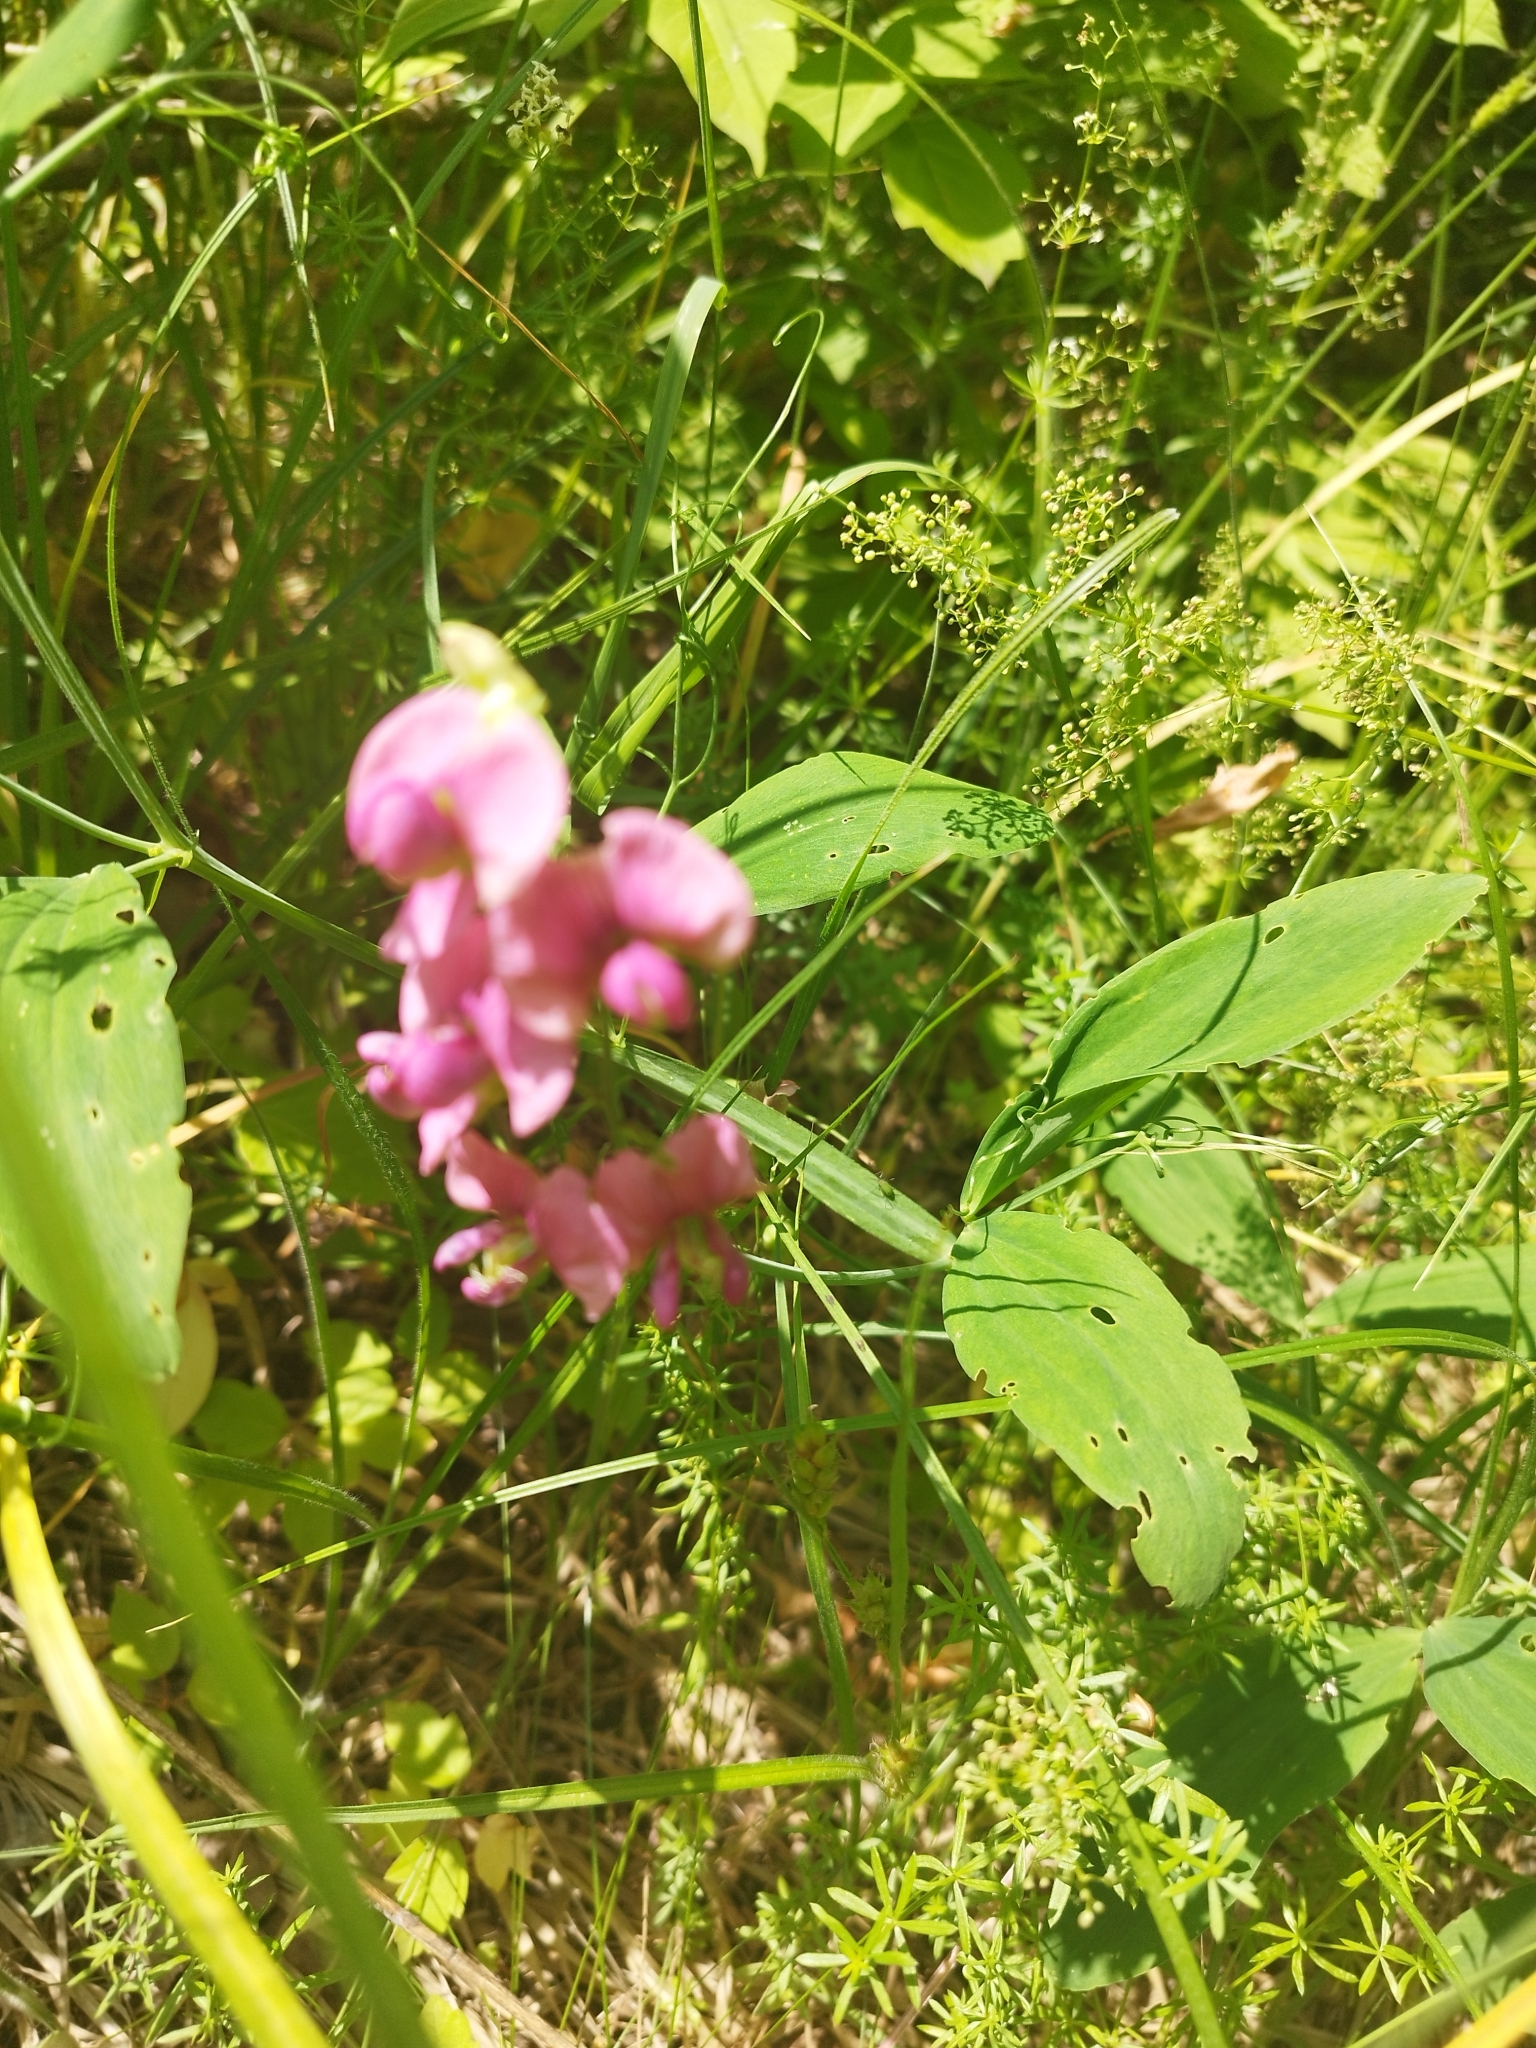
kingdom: Plantae
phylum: Tracheophyta
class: Magnoliopsida
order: Fabales
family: Fabaceae
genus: Lathyrus
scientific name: Lathyrus sylvestris
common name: Flat pea
